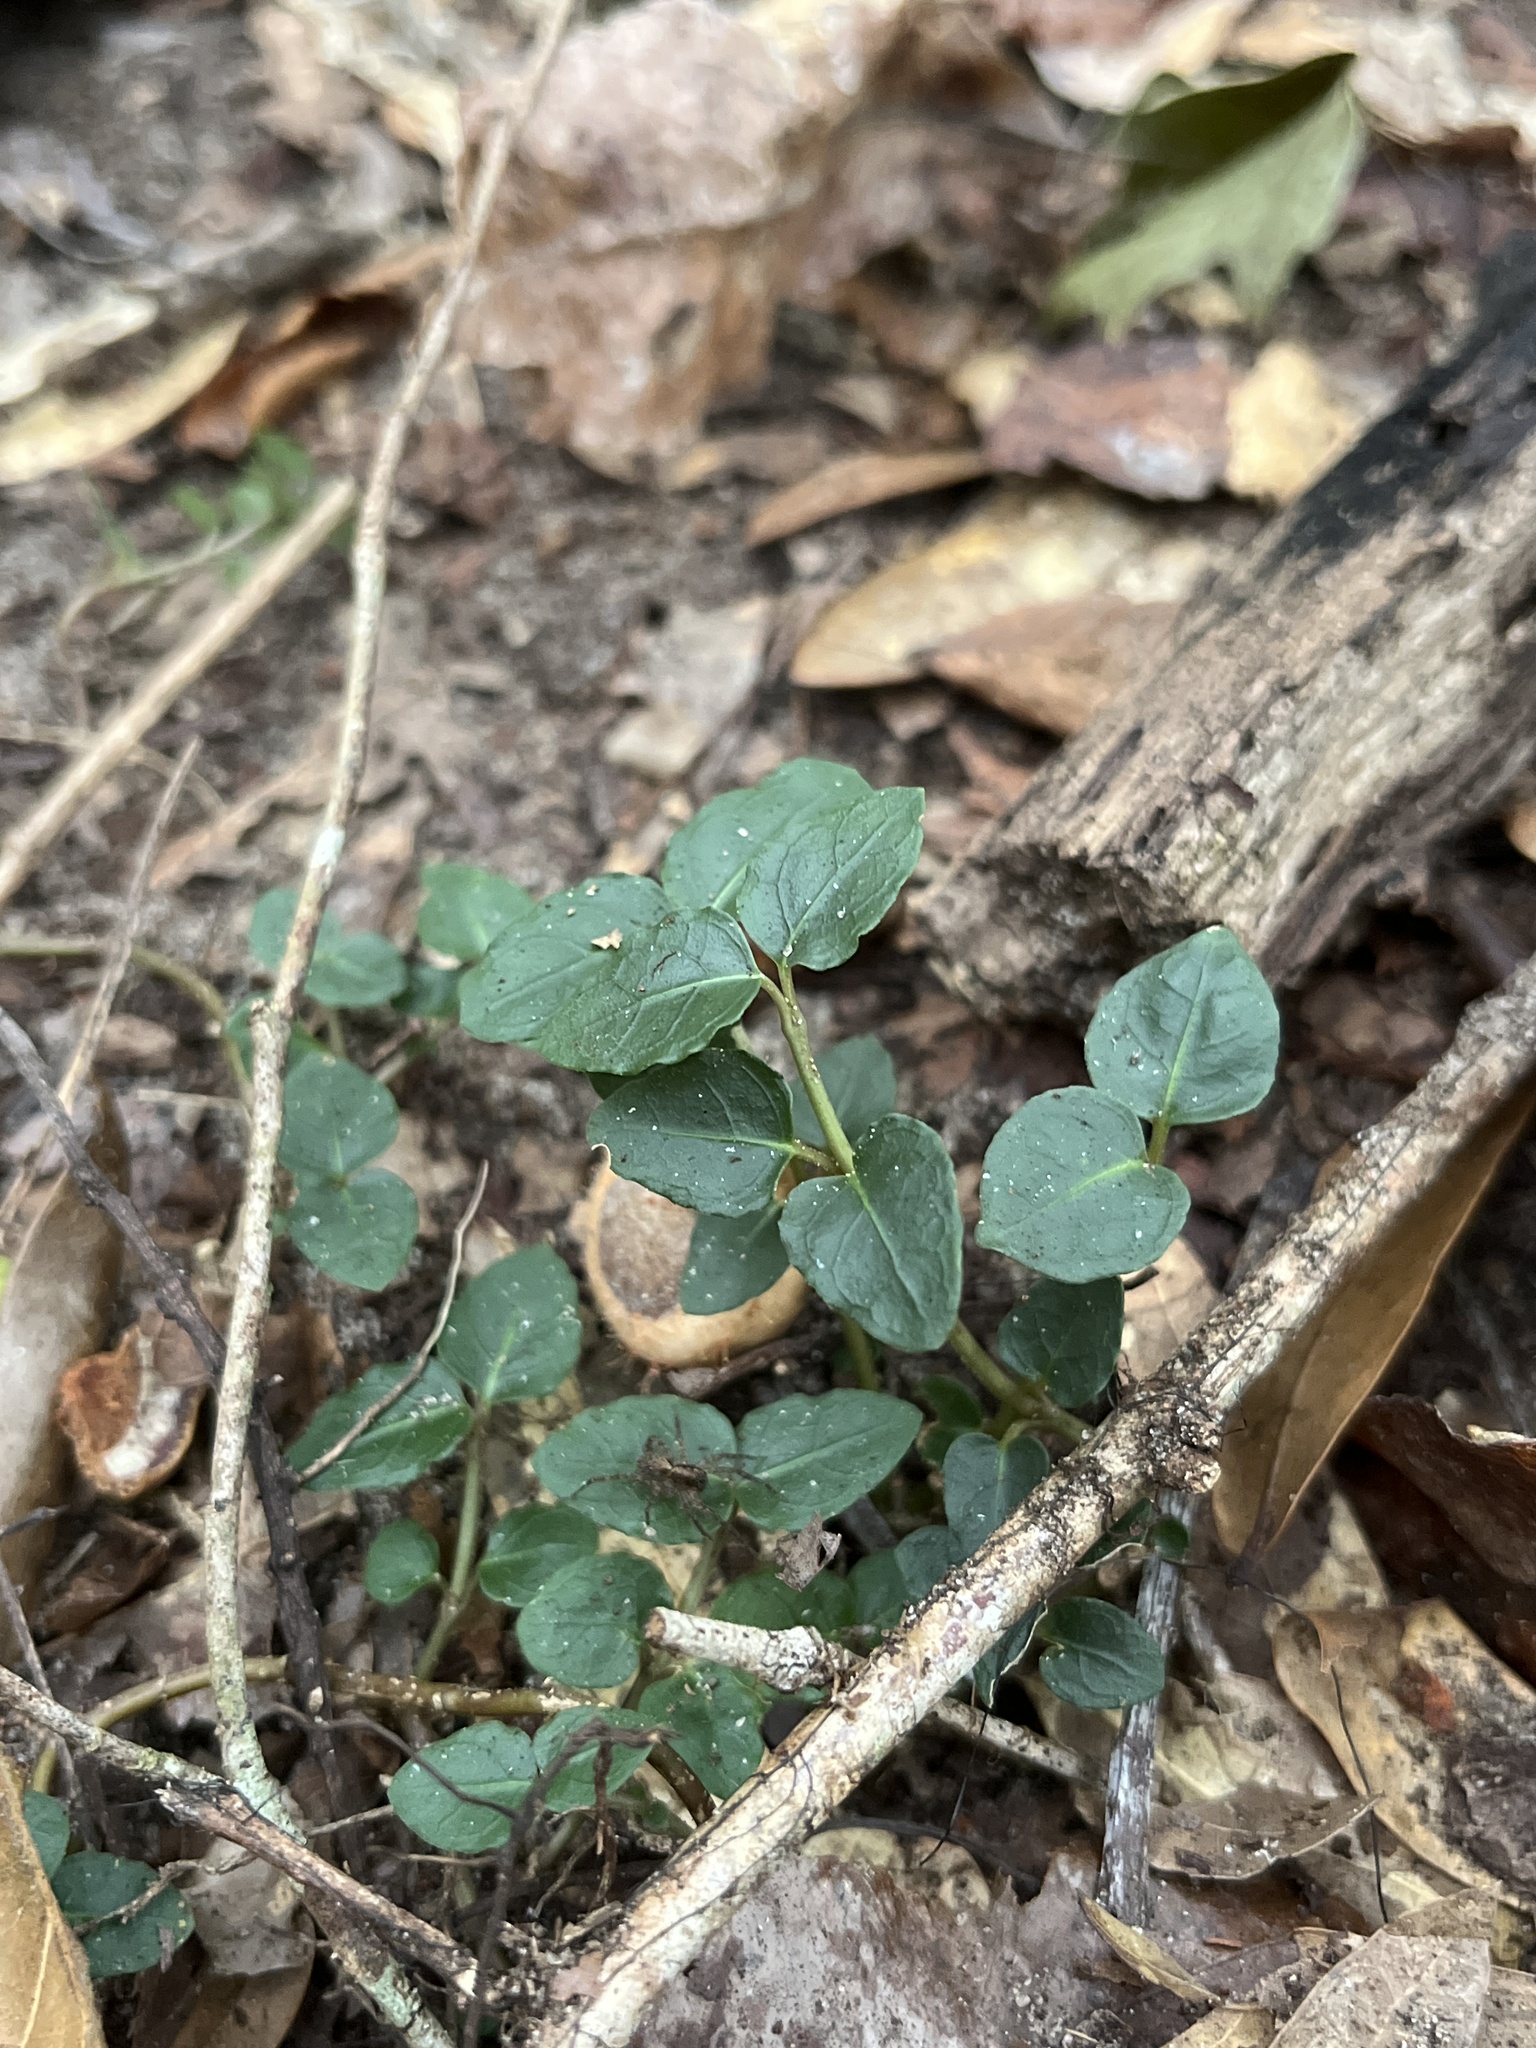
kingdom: Plantae
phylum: Tracheophyta
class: Magnoliopsida
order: Gentianales
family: Rubiaceae
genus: Mitchella
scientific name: Mitchella repens
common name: Partridge-berry
